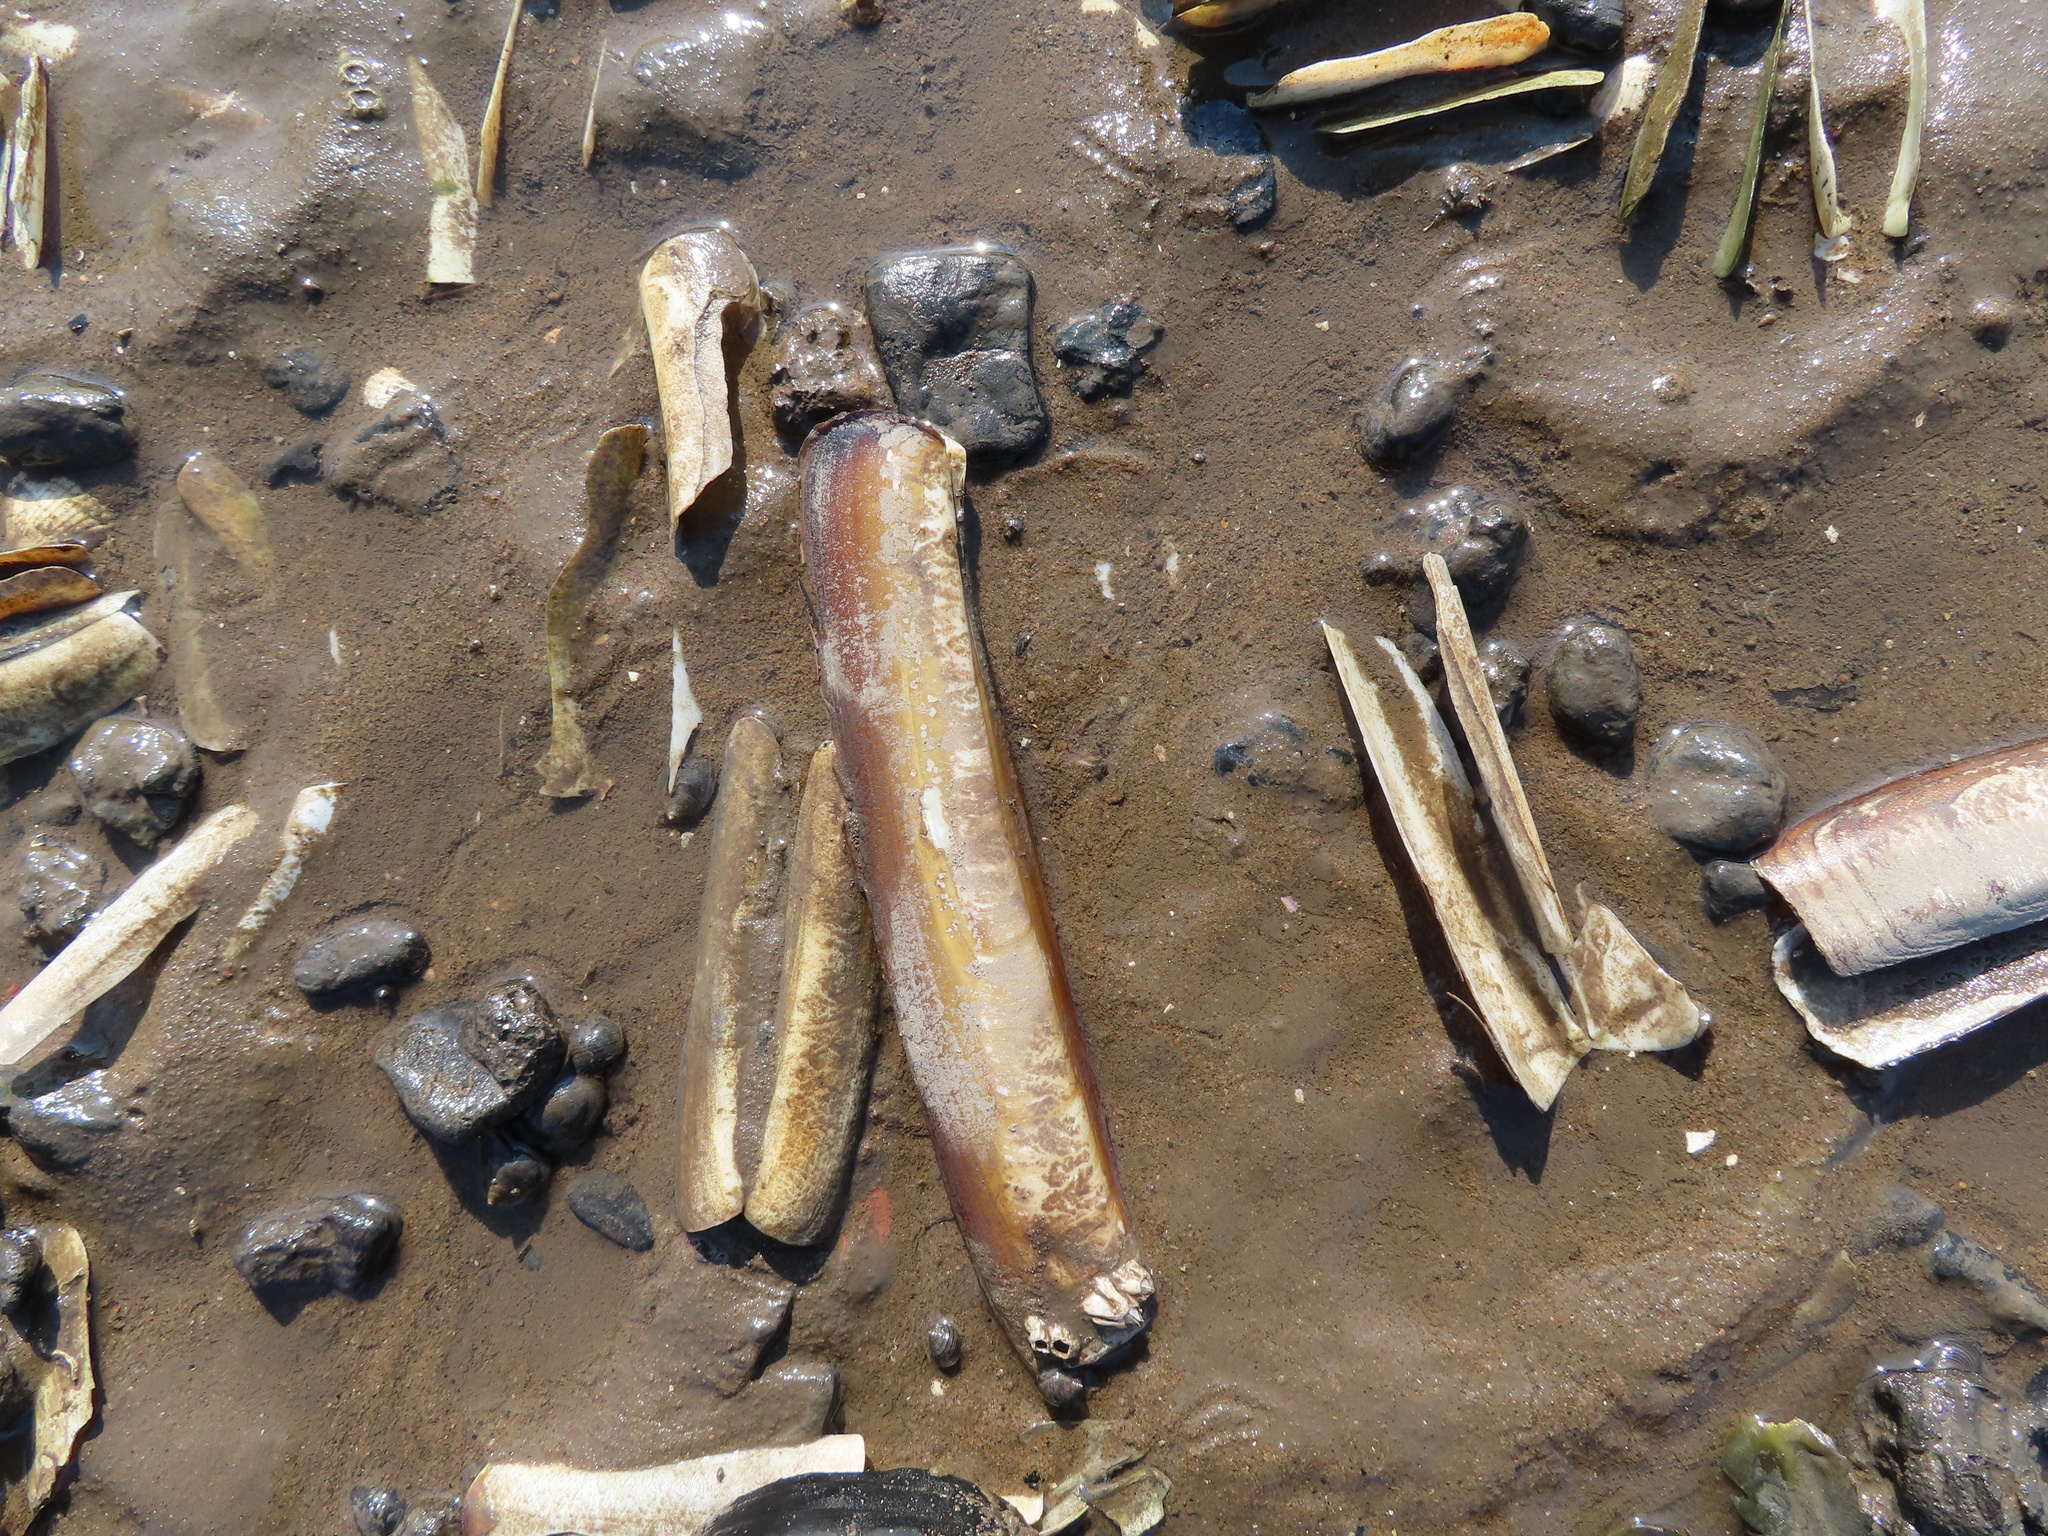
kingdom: Animalia
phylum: Mollusca
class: Bivalvia
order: Adapedonta
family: Pharidae
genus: Ensis
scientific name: Ensis siliqua
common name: Pod razor shell
